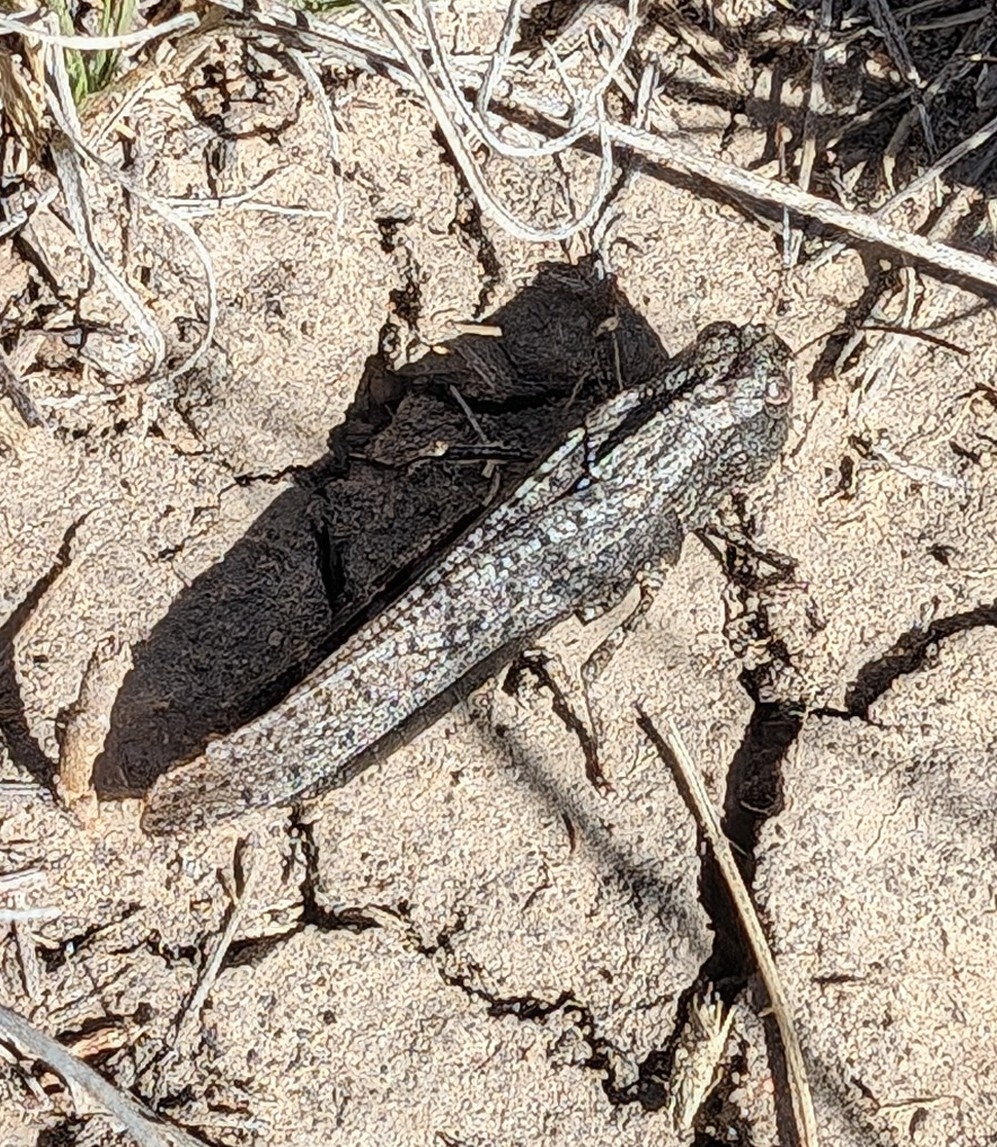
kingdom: Animalia
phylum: Arthropoda
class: Insecta
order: Orthoptera
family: Acrididae
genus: Arphia
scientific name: Arphia pseudo-nietana
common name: Red-winged grasshopper
